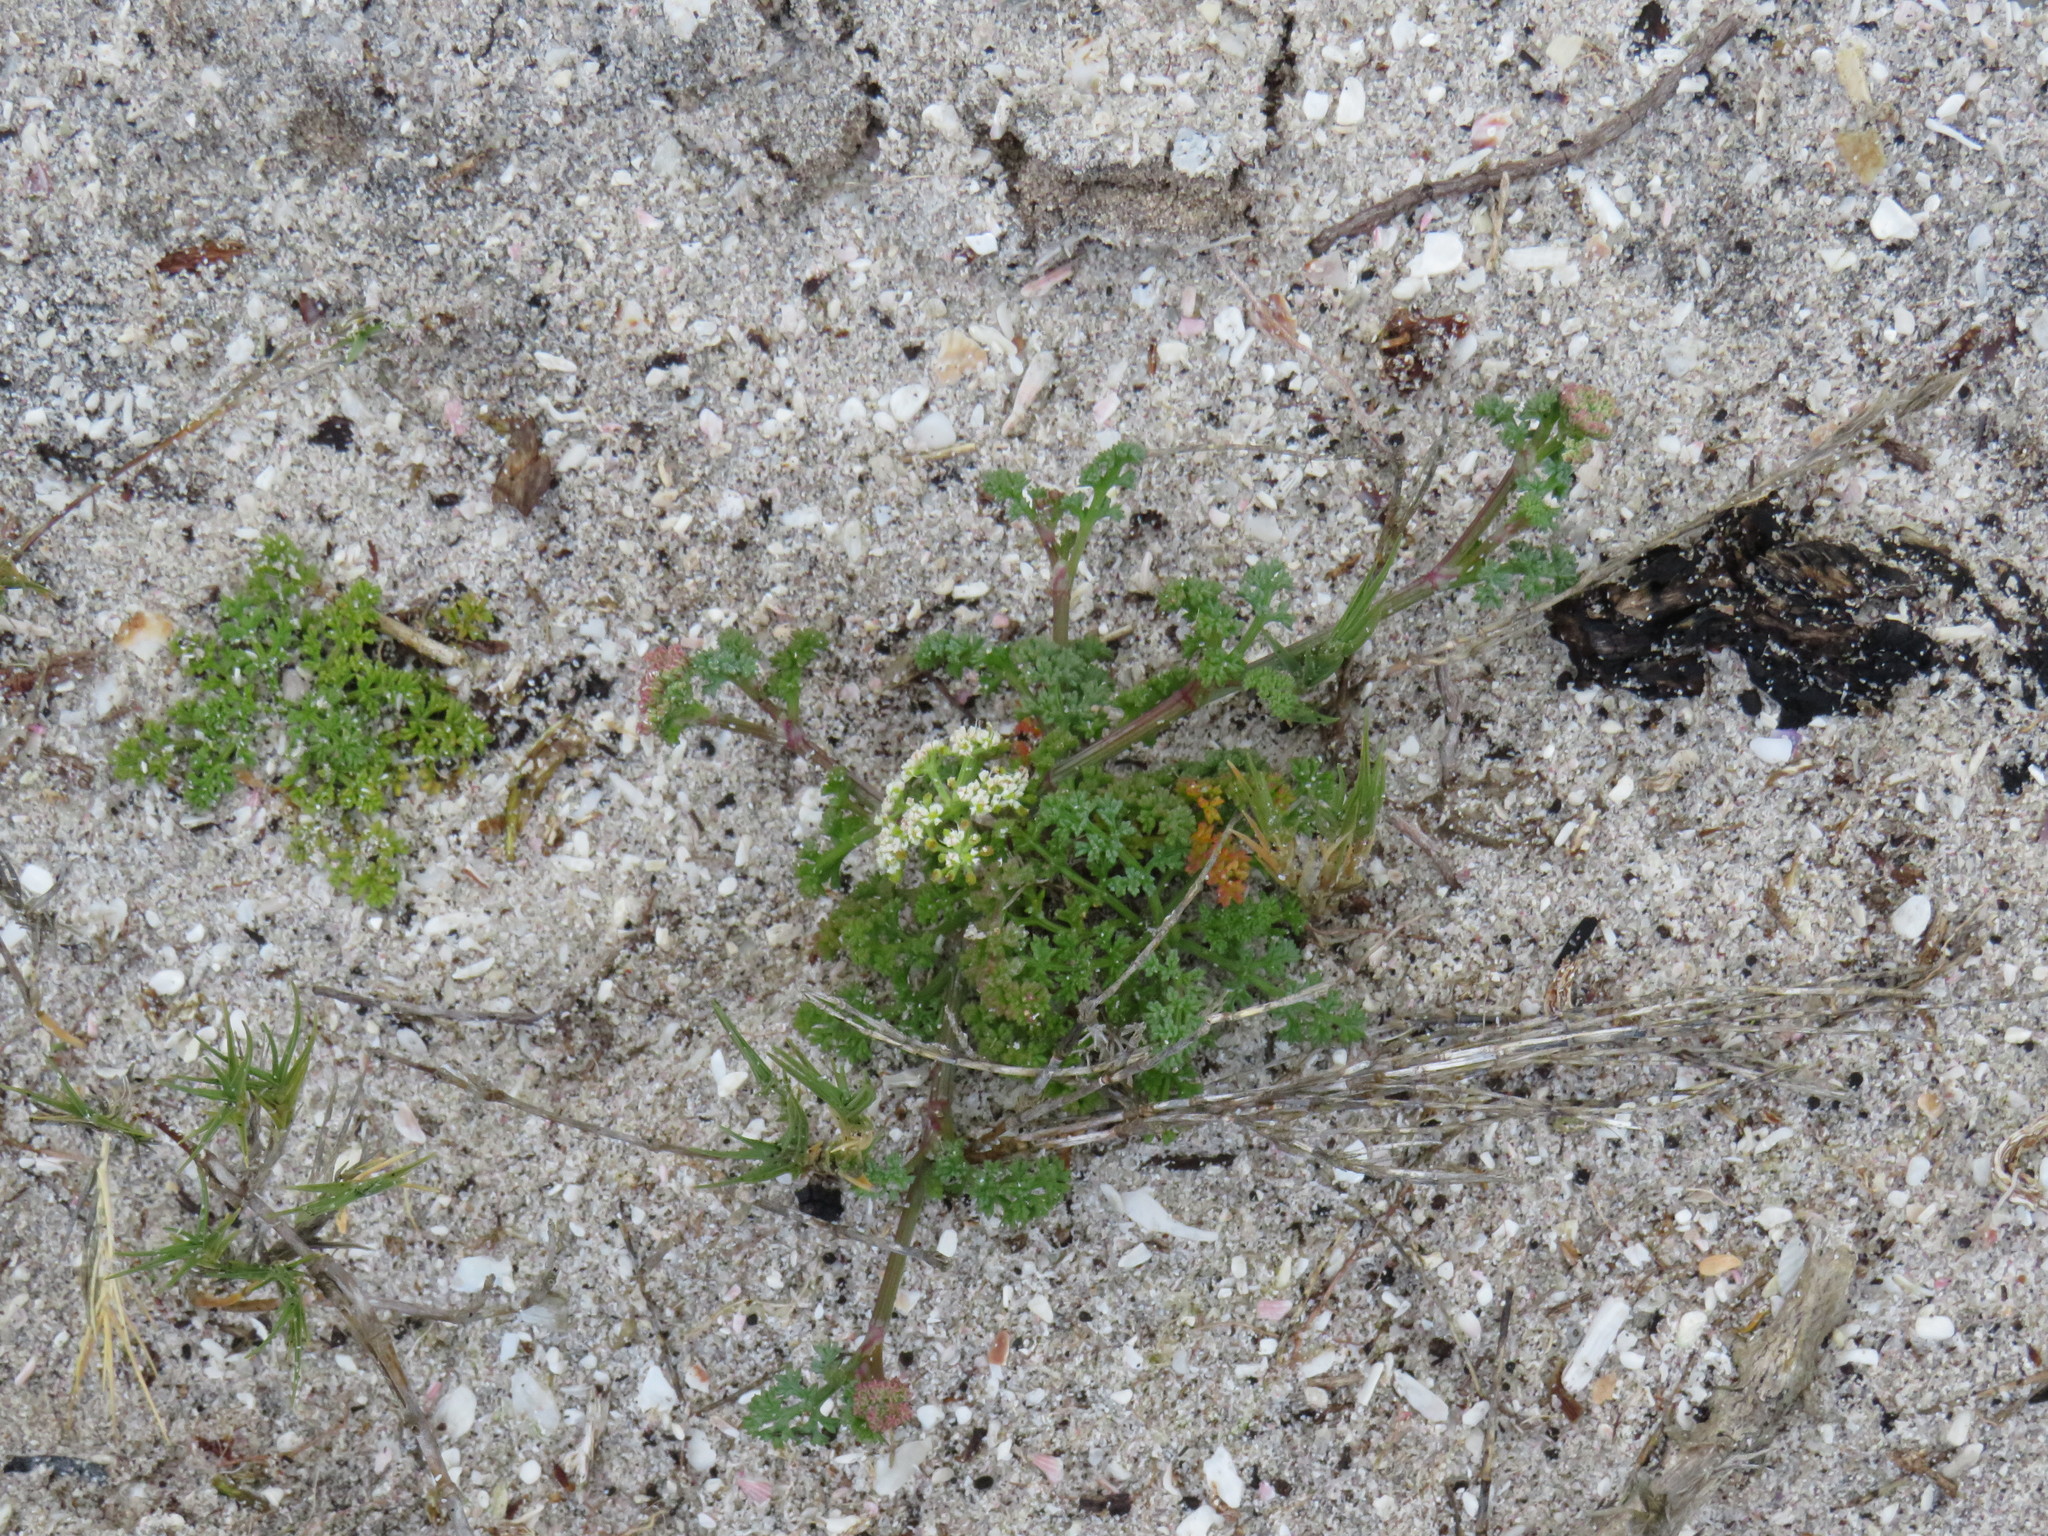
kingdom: Plantae
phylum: Tracheophyta
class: Magnoliopsida
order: Apiales
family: Apiaceae
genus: Dasispermum
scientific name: Dasispermum suffruticosum
